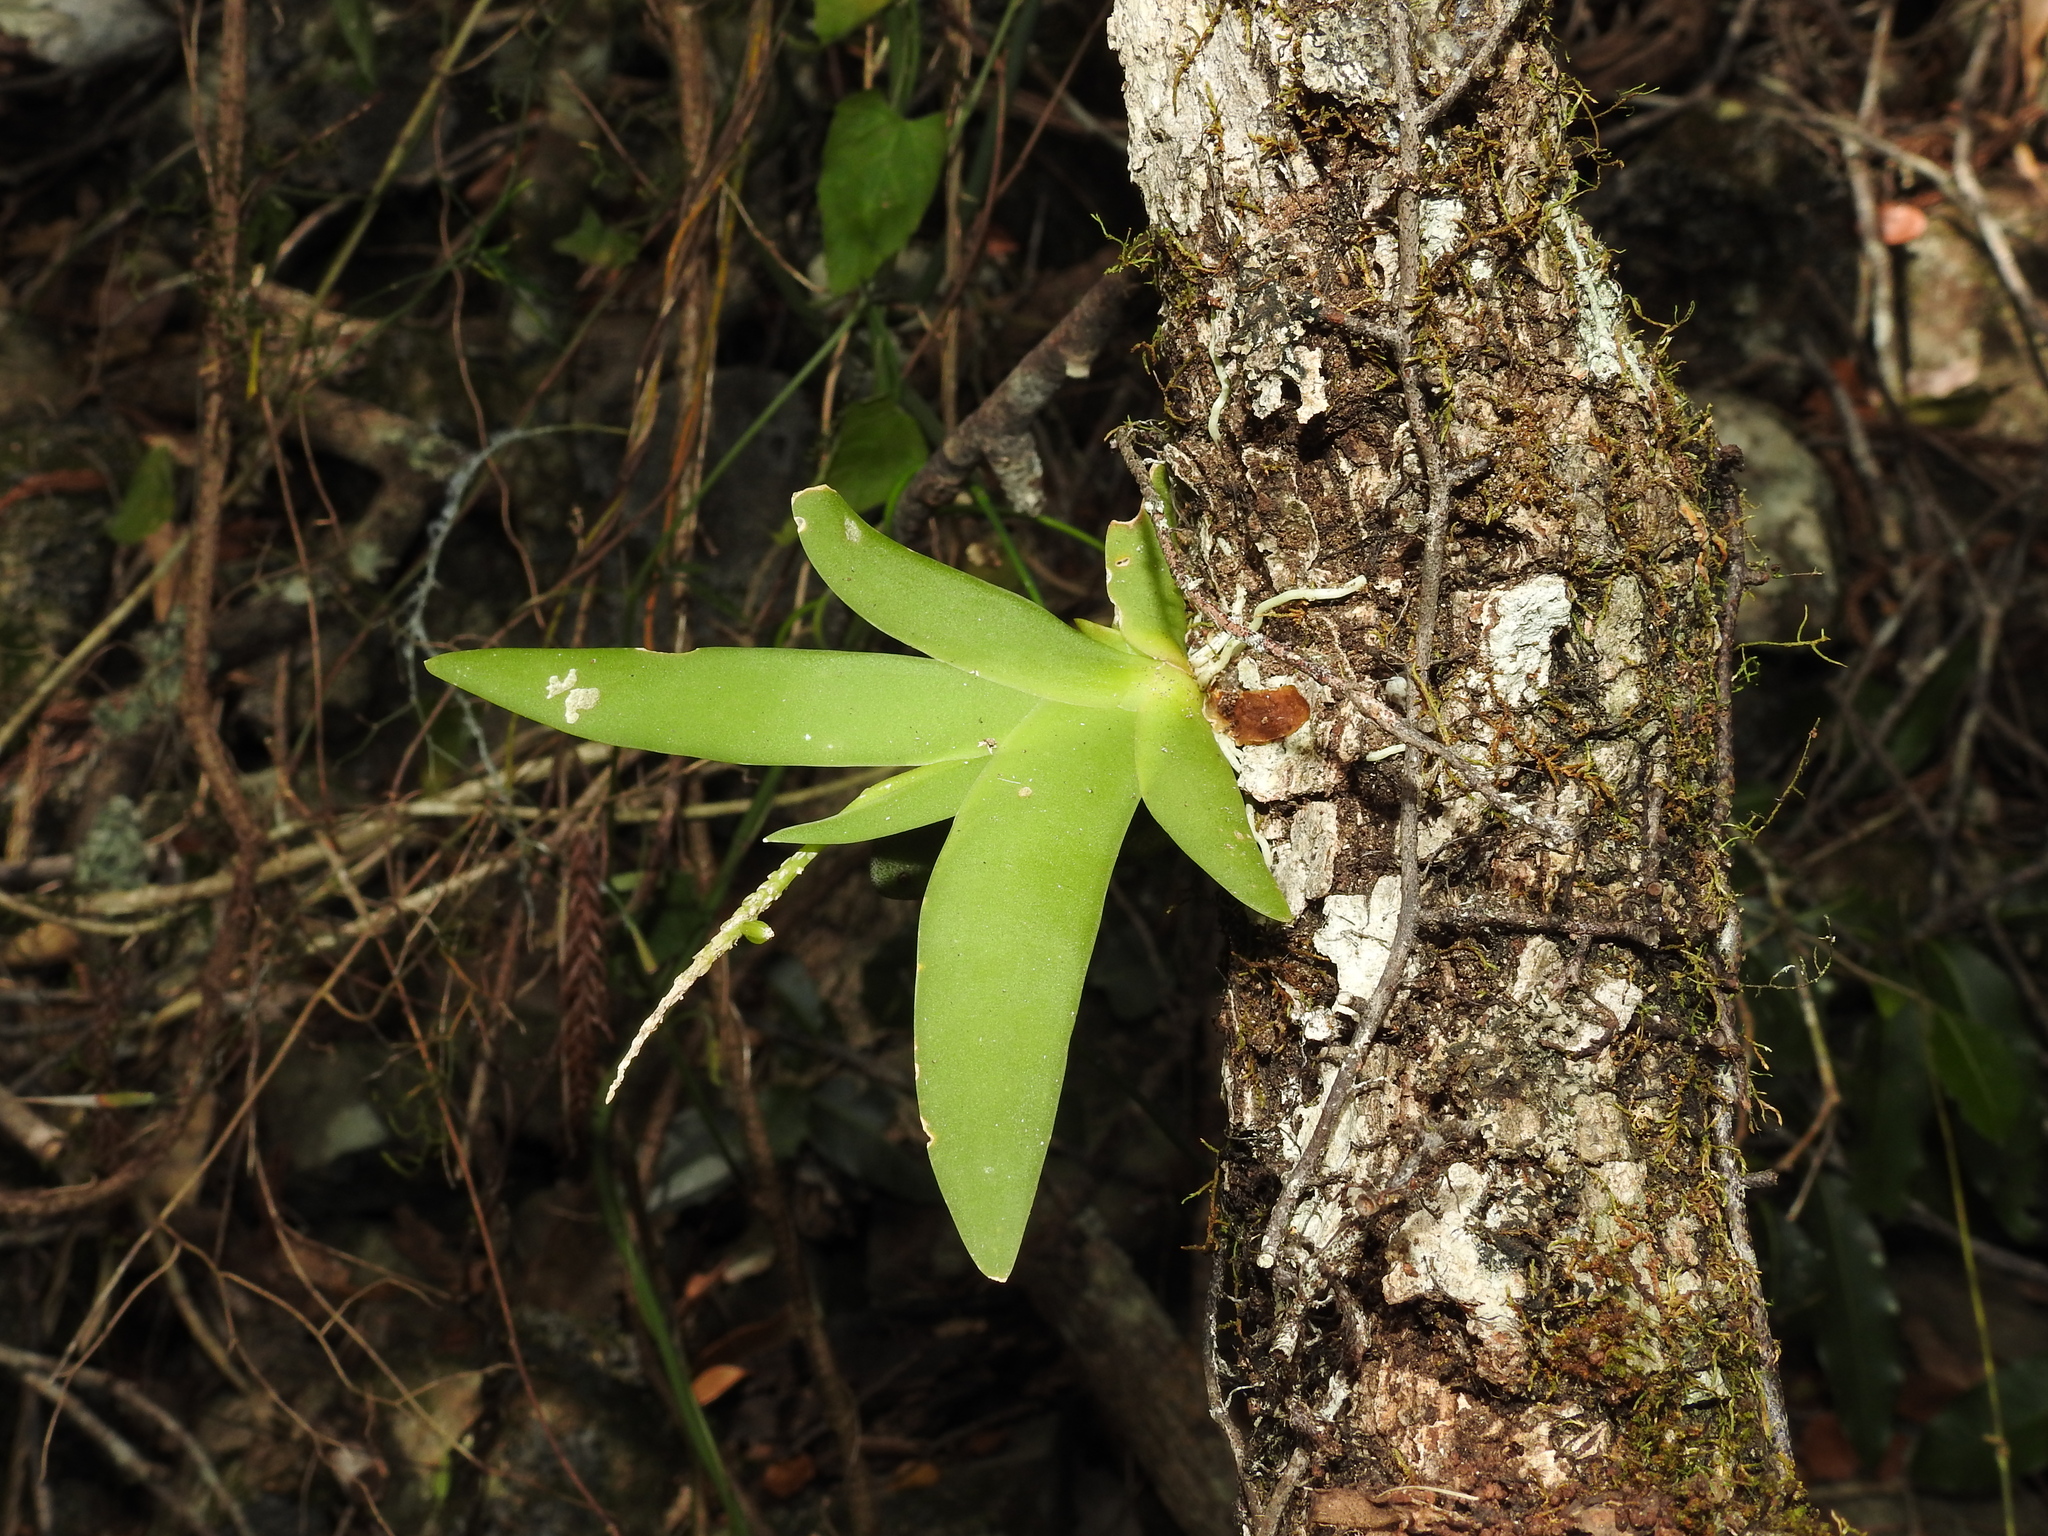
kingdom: Plantae
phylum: Tracheophyta
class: Liliopsida
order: Asparagales
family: Orchidaceae
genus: Oberonia
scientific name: Oberonia titania
